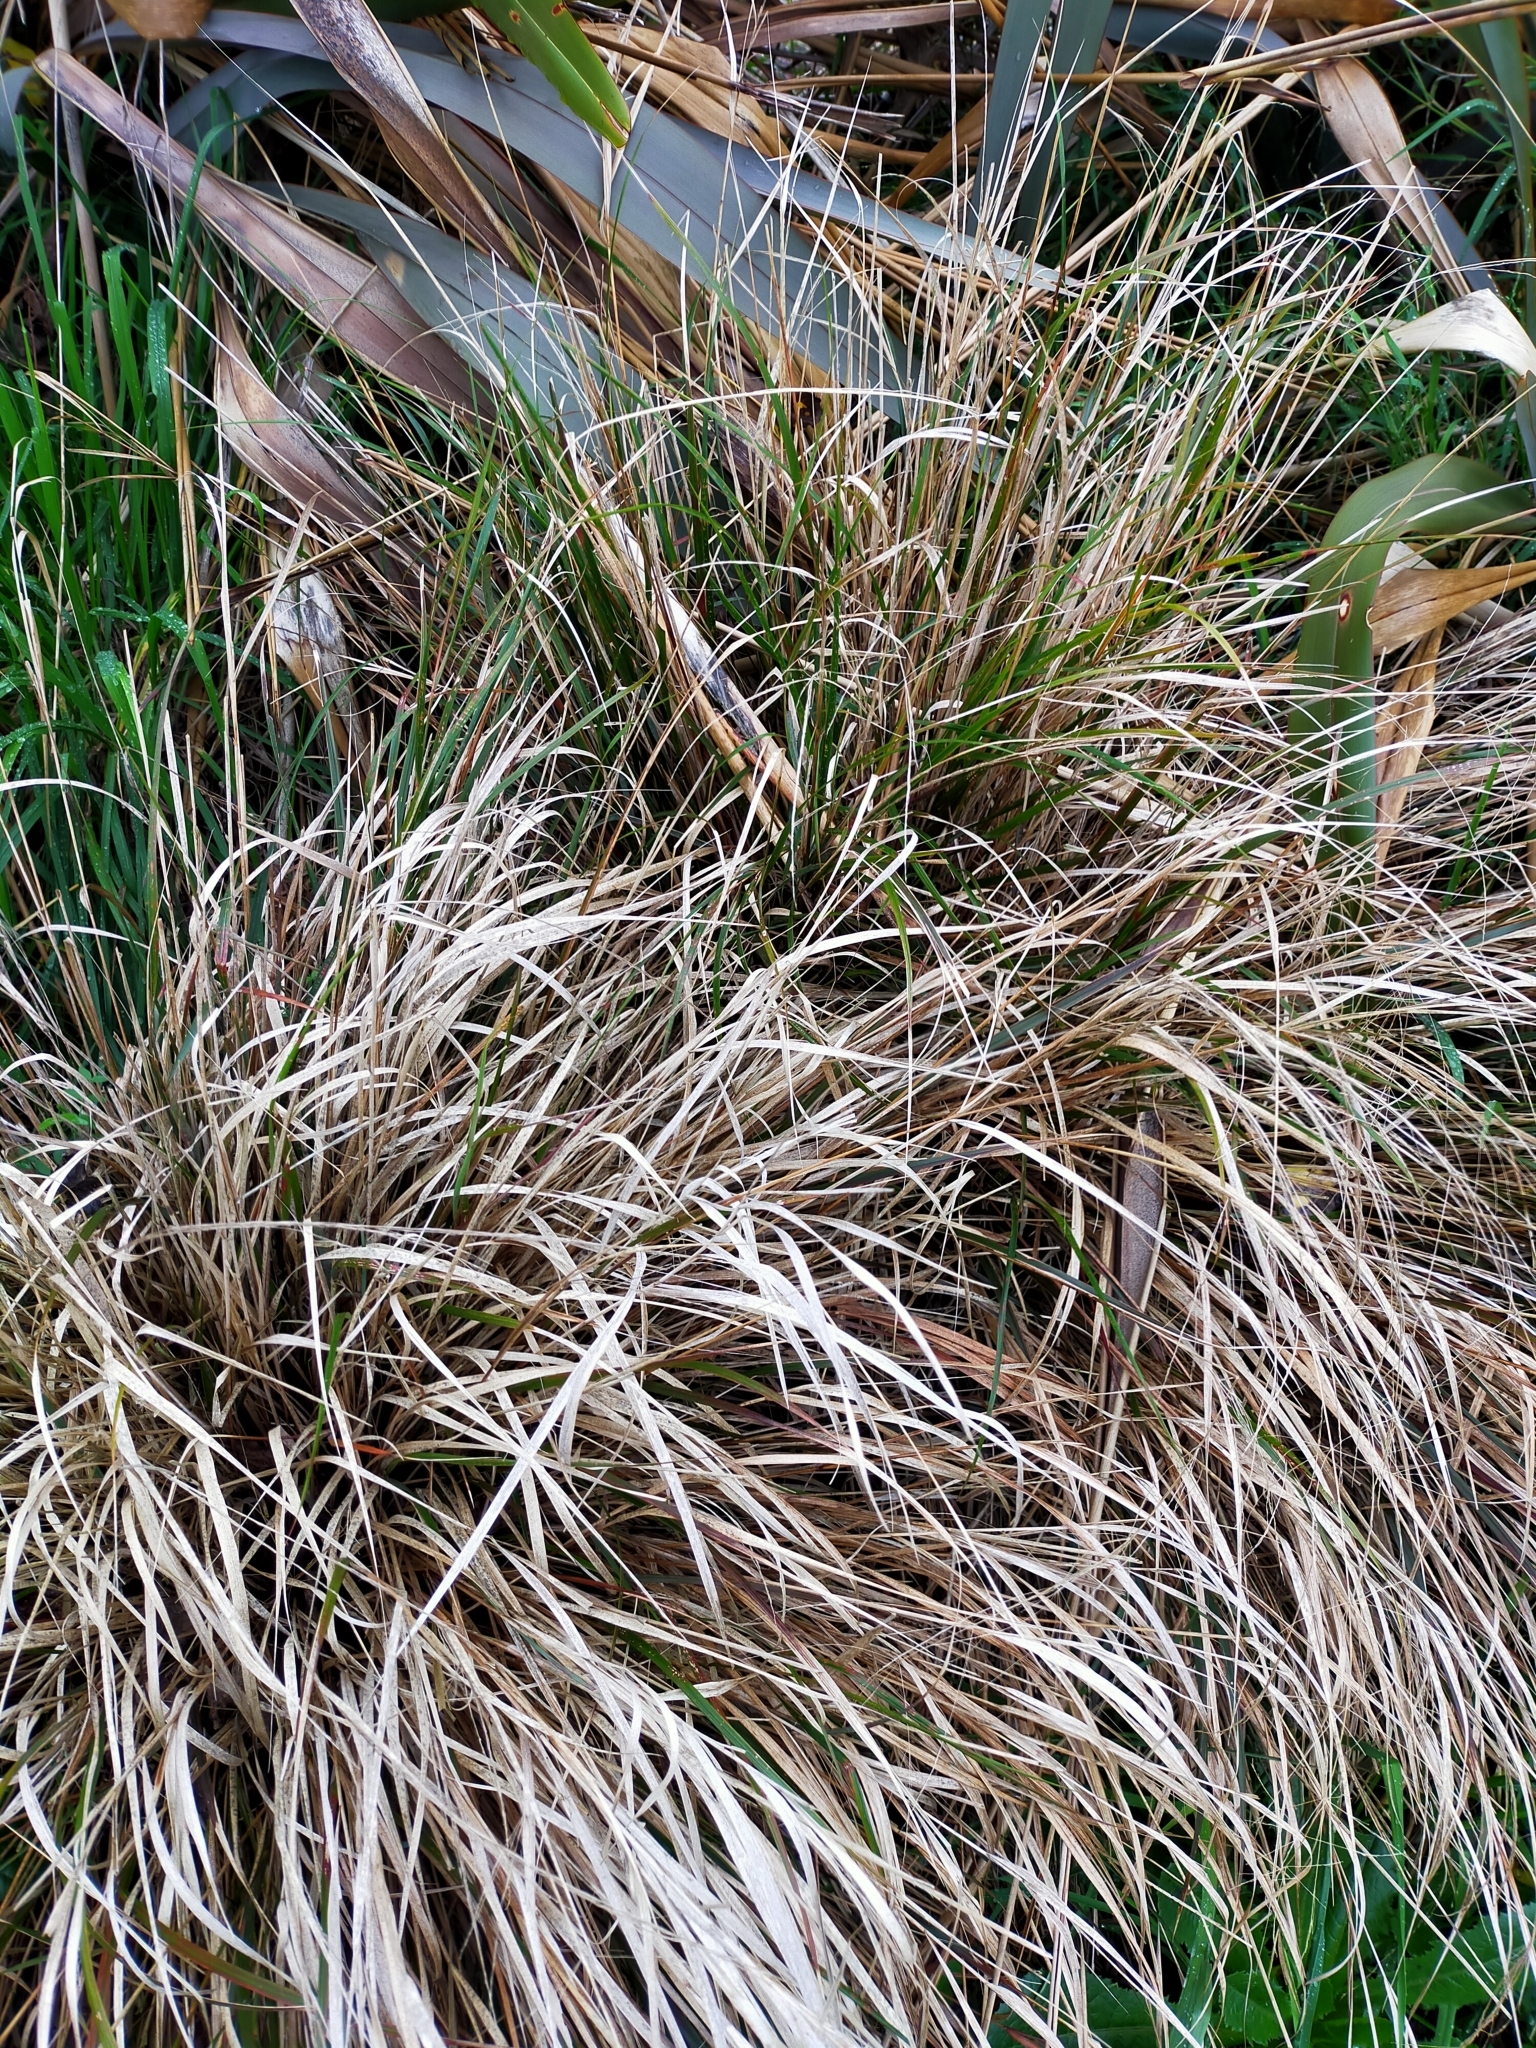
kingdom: Plantae
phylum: Tracheophyta
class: Liliopsida
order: Poales
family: Poaceae
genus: Anemanthele
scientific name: Anemanthele lessoniana
